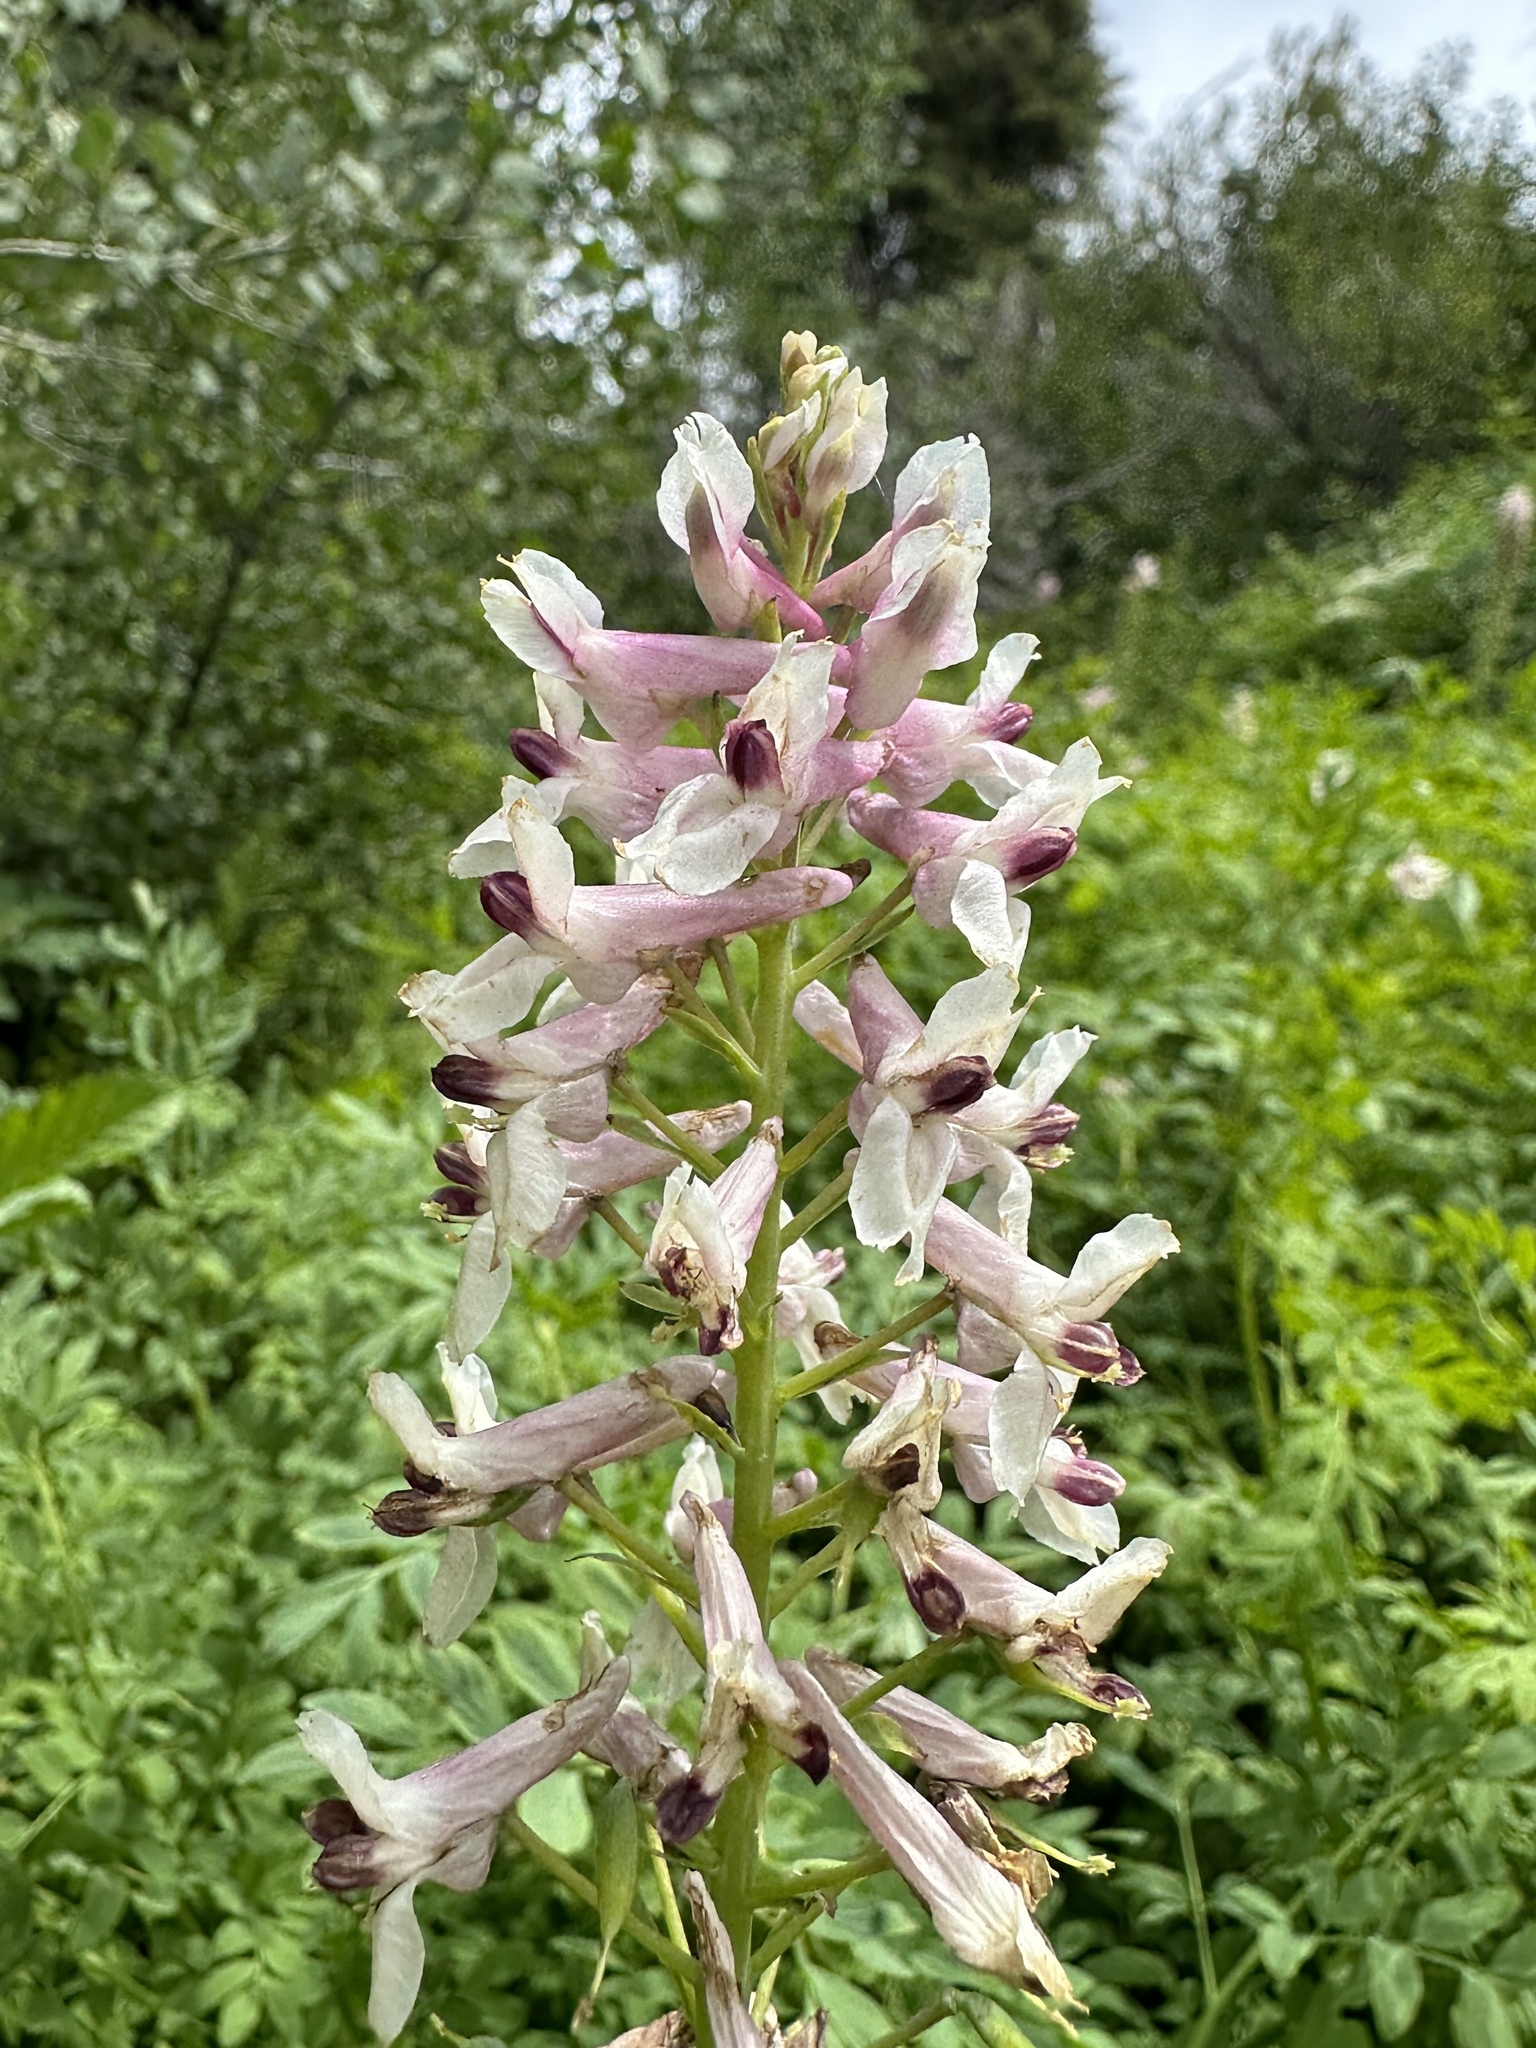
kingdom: Plantae
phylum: Tracheophyta
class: Magnoliopsida
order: Ranunculales
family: Papaveraceae
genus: Corydalis
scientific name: Corydalis caseana
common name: Fitweed
